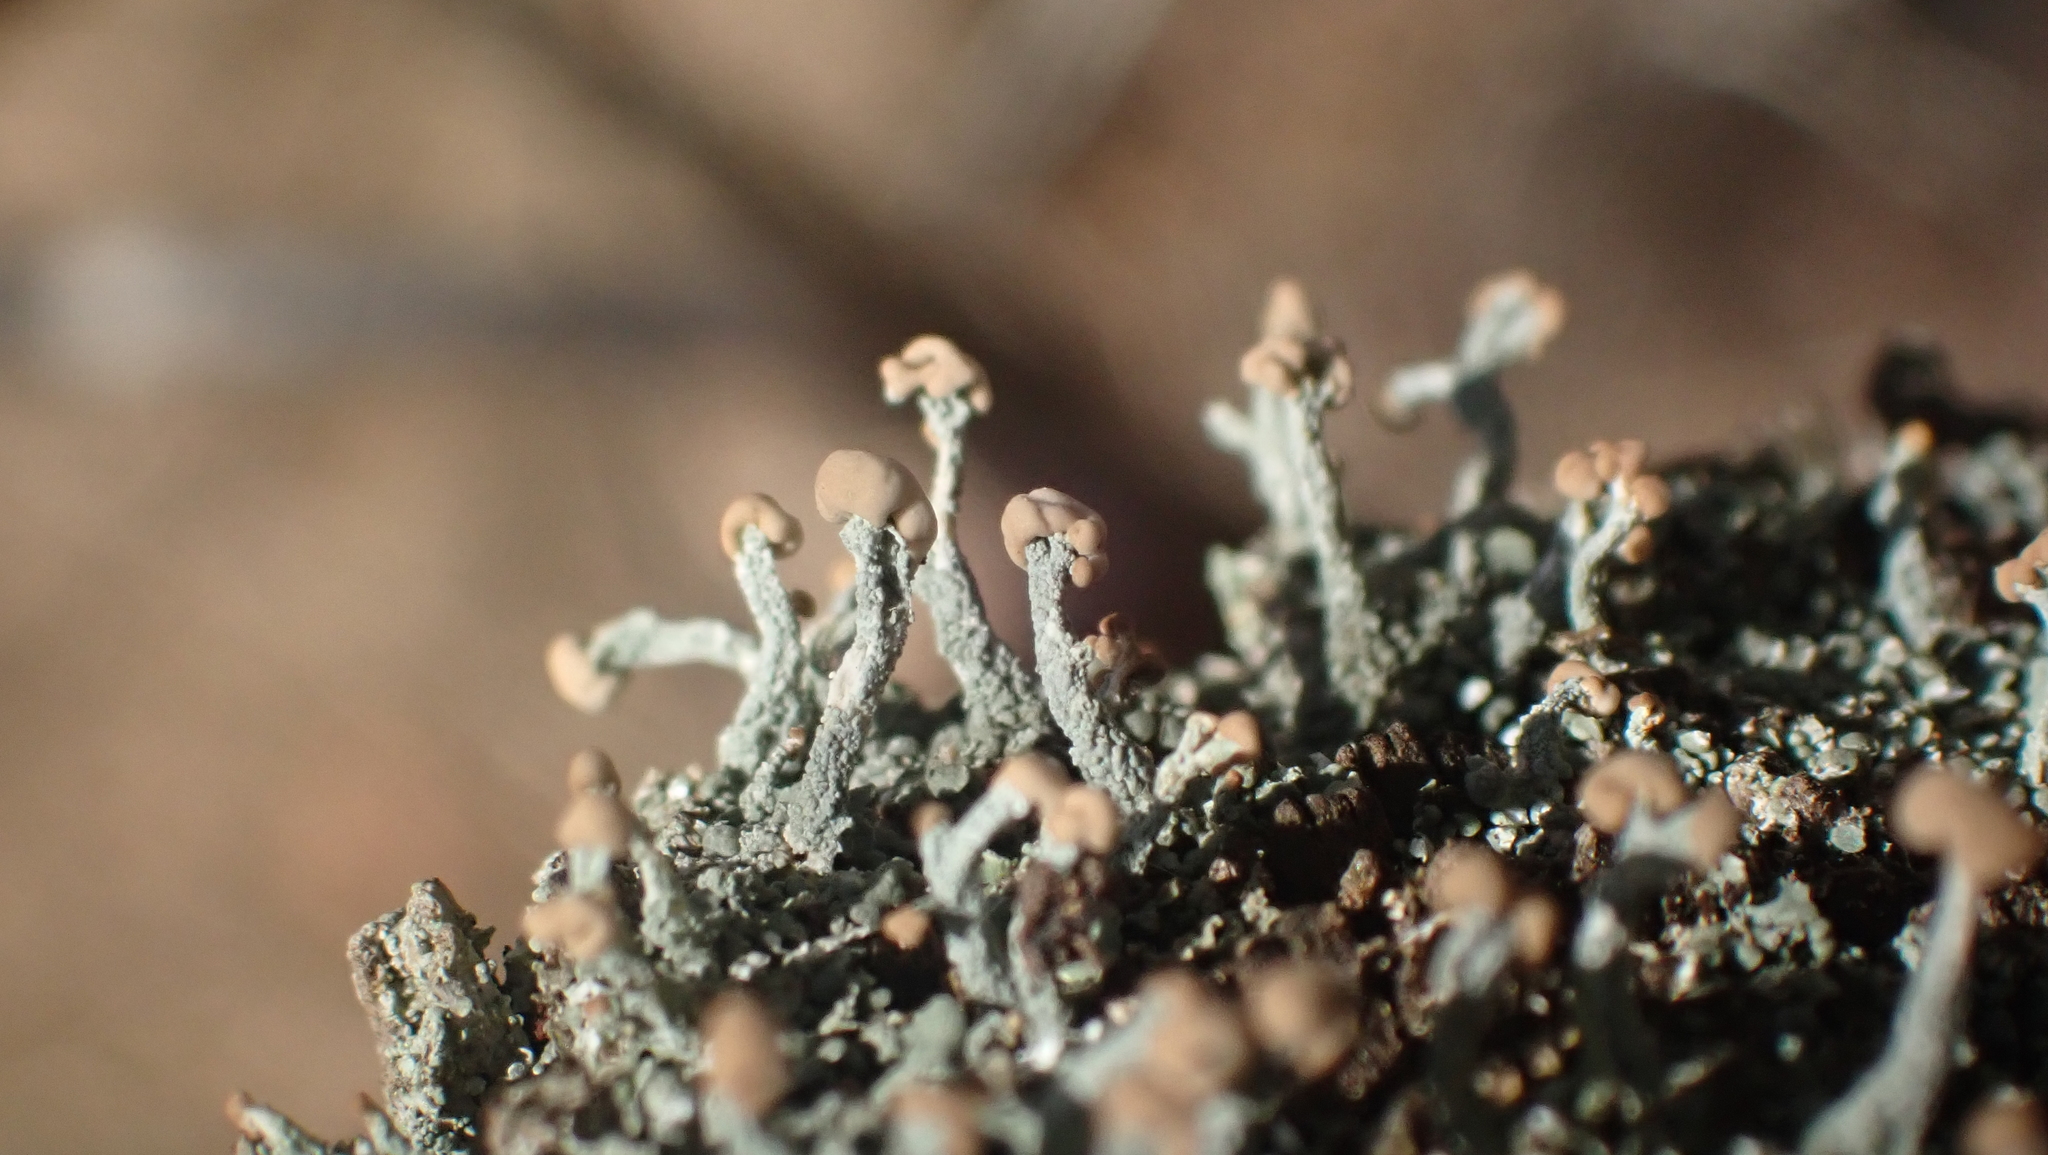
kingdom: Fungi
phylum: Ascomycota
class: Lecanoromycetes
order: Lecanorales
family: Cladoniaceae
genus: Cladonia
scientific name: Cladonia peziziformis
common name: Cup lichen
